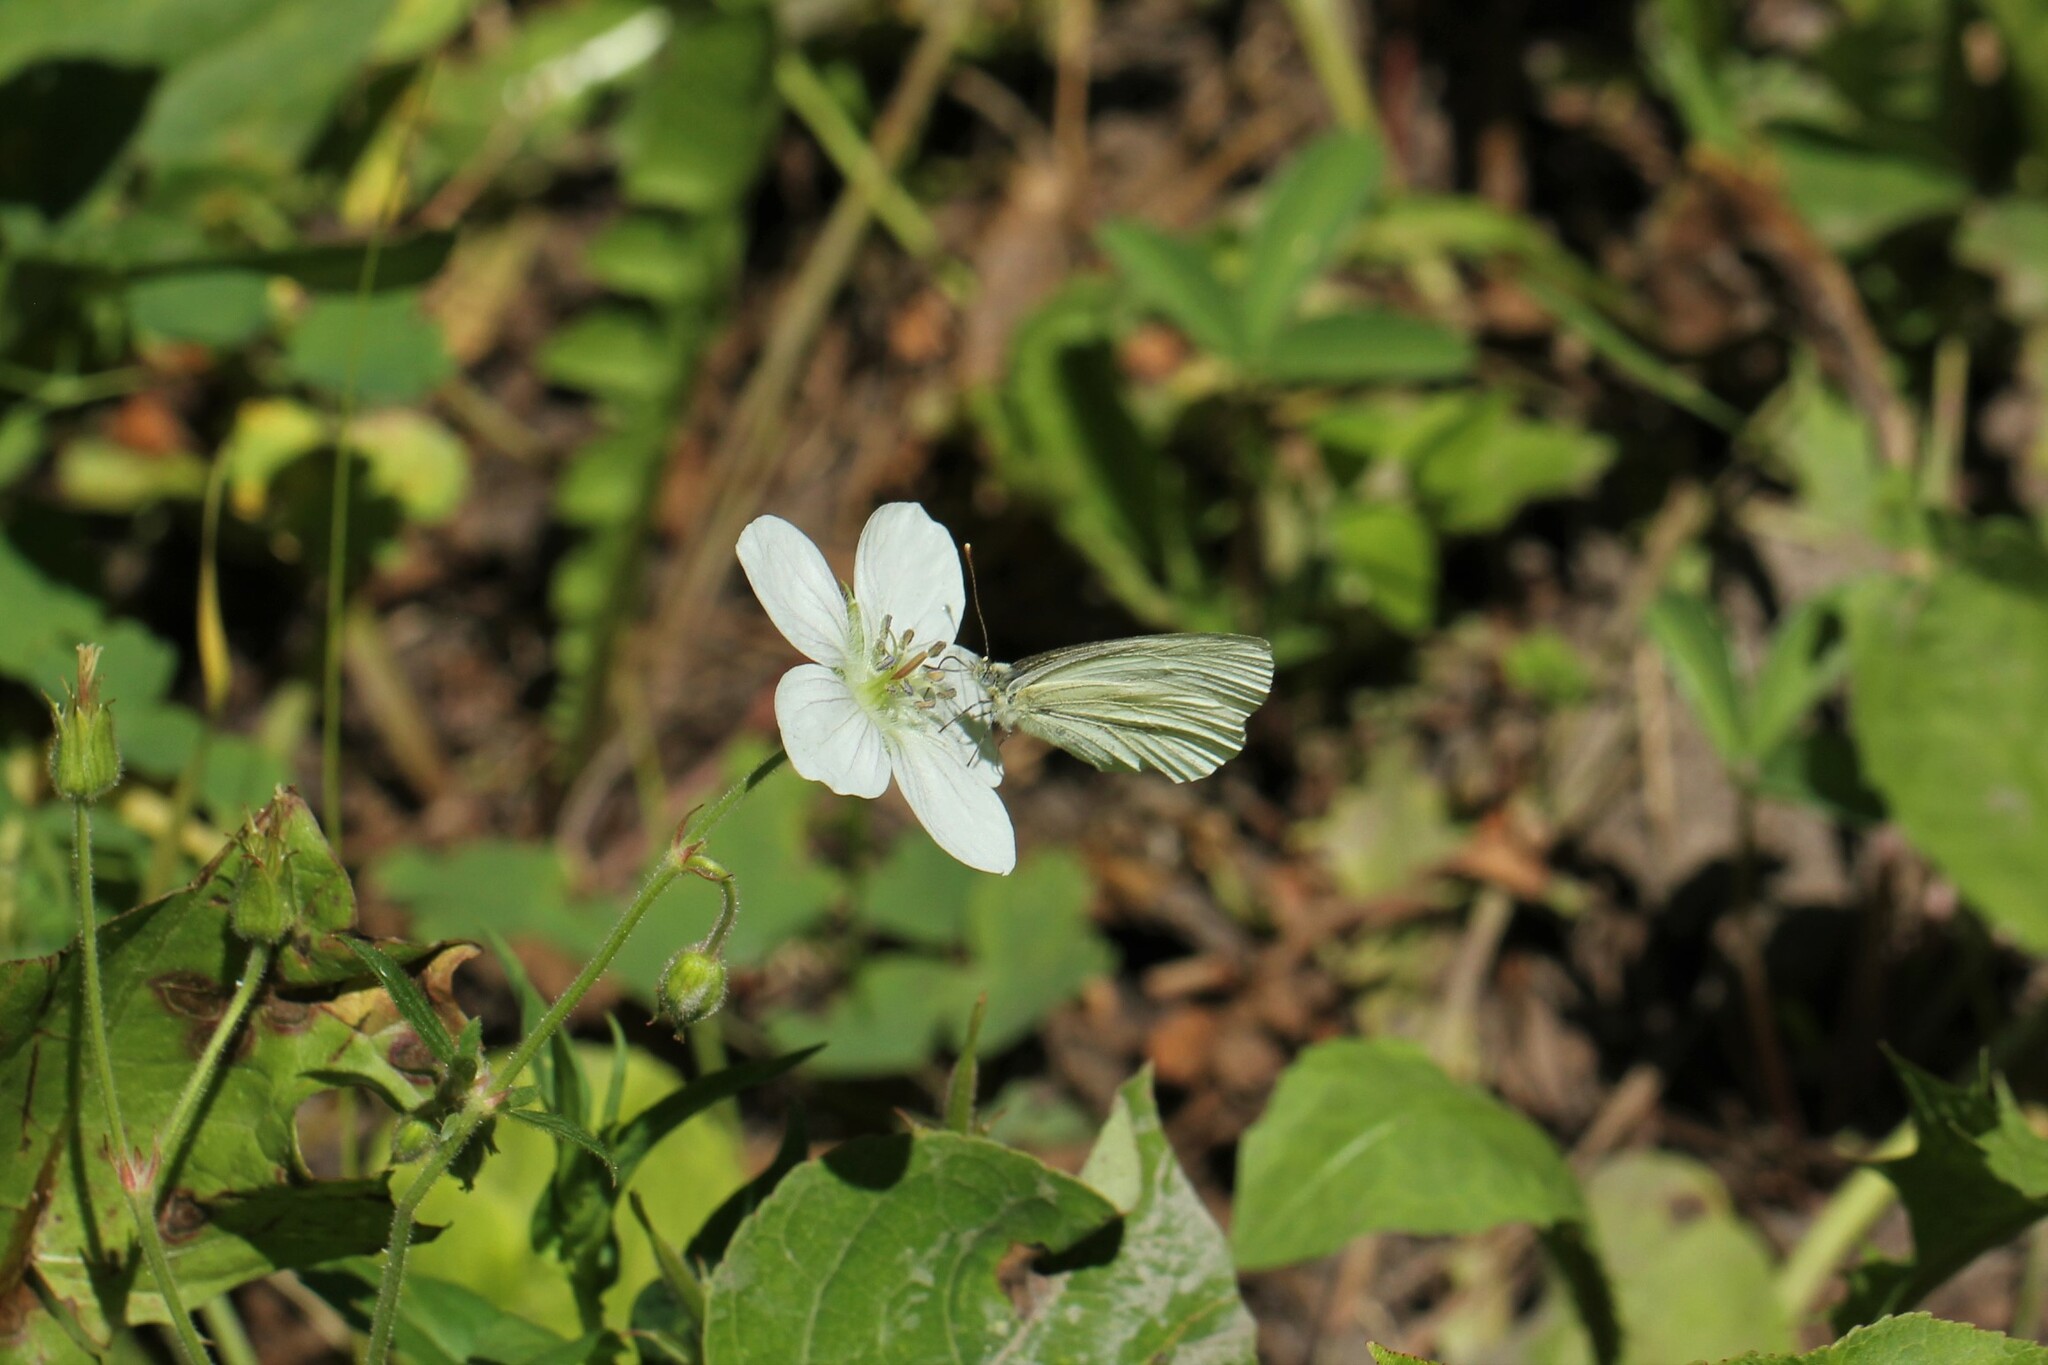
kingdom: Animalia
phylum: Arthropoda
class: Insecta
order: Lepidoptera
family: Pieridae
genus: Pieris
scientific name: Pieris marginalis
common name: Margined white
